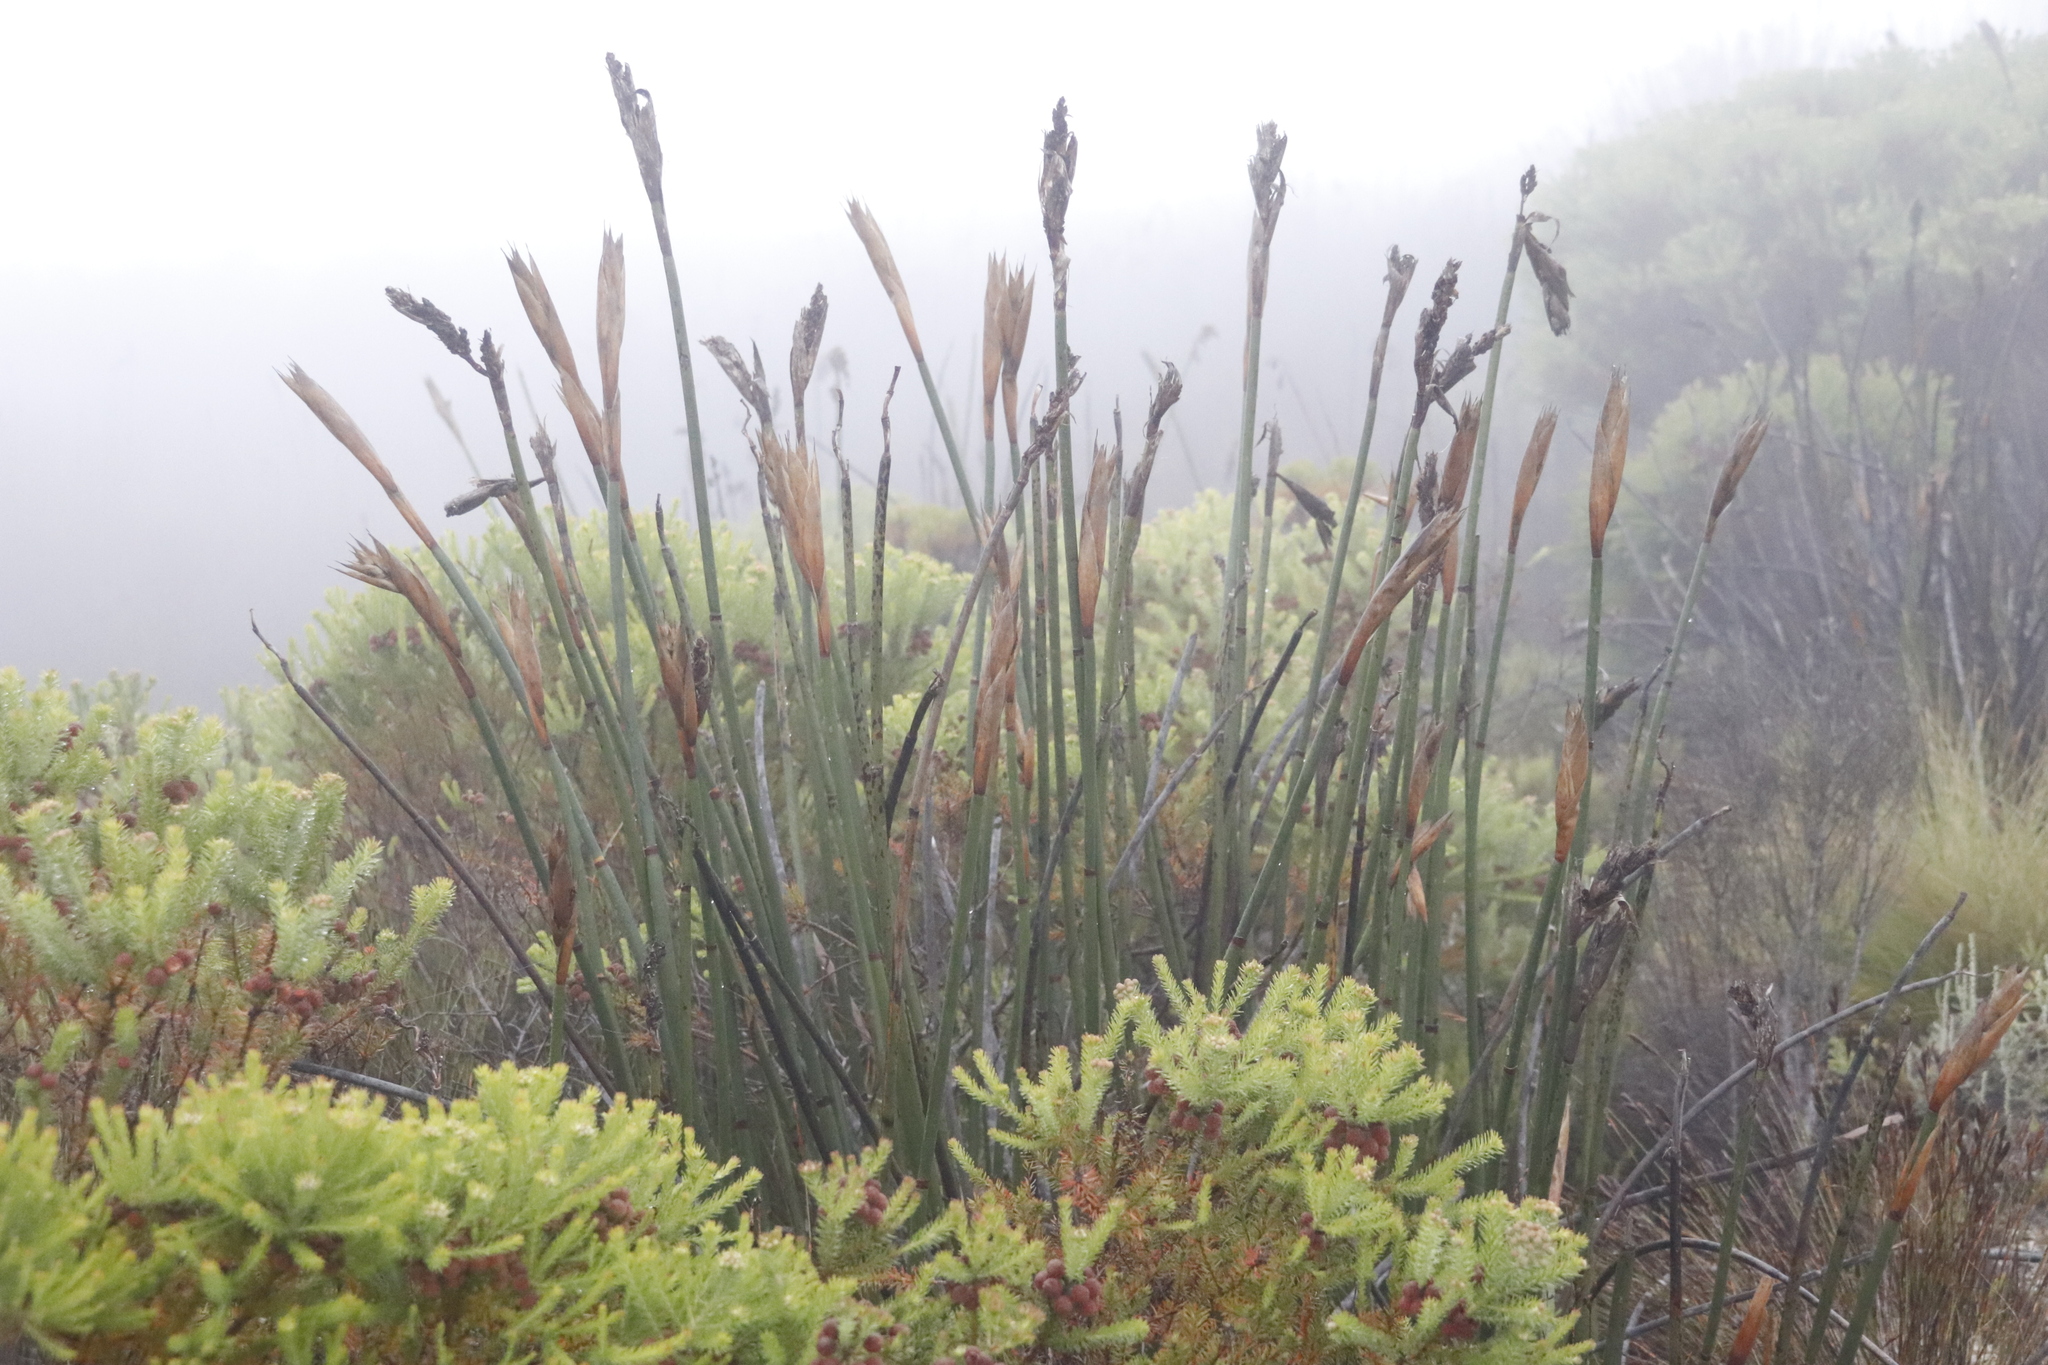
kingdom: Plantae
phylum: Tracheophyta
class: Liliopsida
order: Poales
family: Restionaceae
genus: Elegia
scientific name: Elegia mucronata
